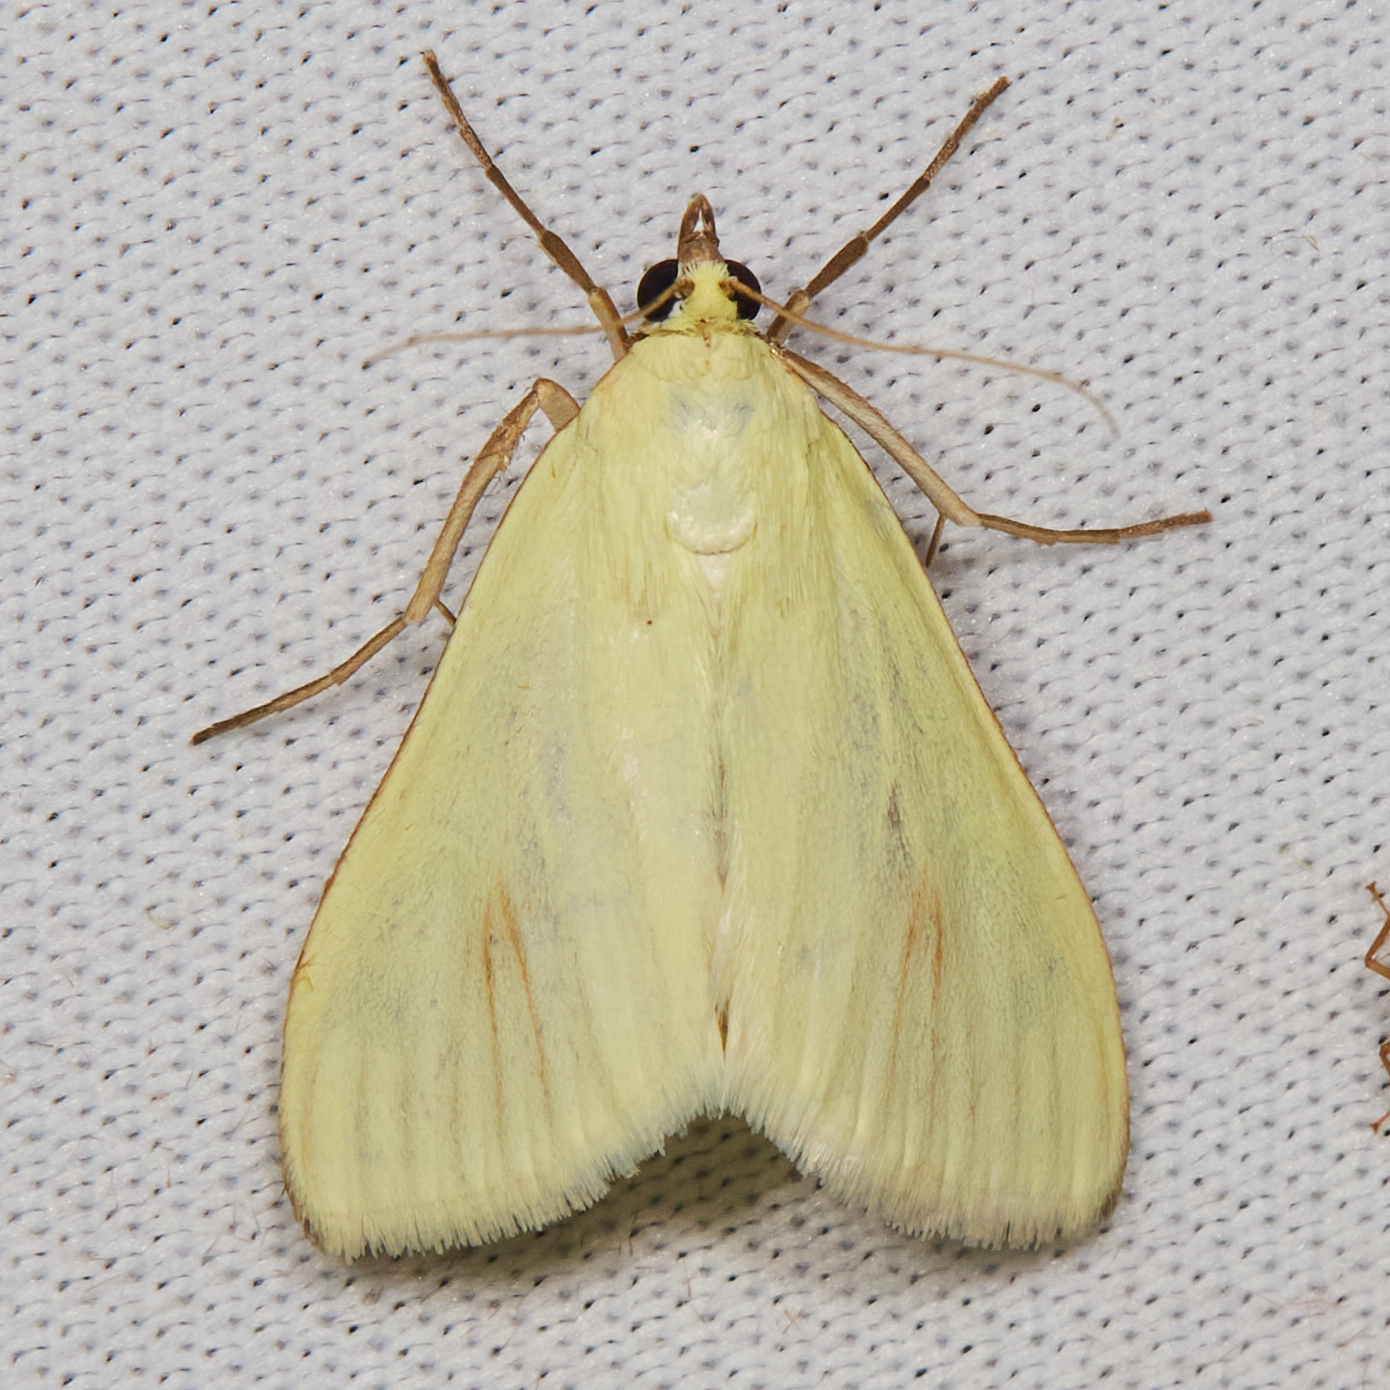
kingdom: Animalia
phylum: Arthropoda
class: Insecta
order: Lepidoptera
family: Crambidae
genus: Sitochroa
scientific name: Sitochroa palealis
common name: Greenish-yellow sitochroa moth
